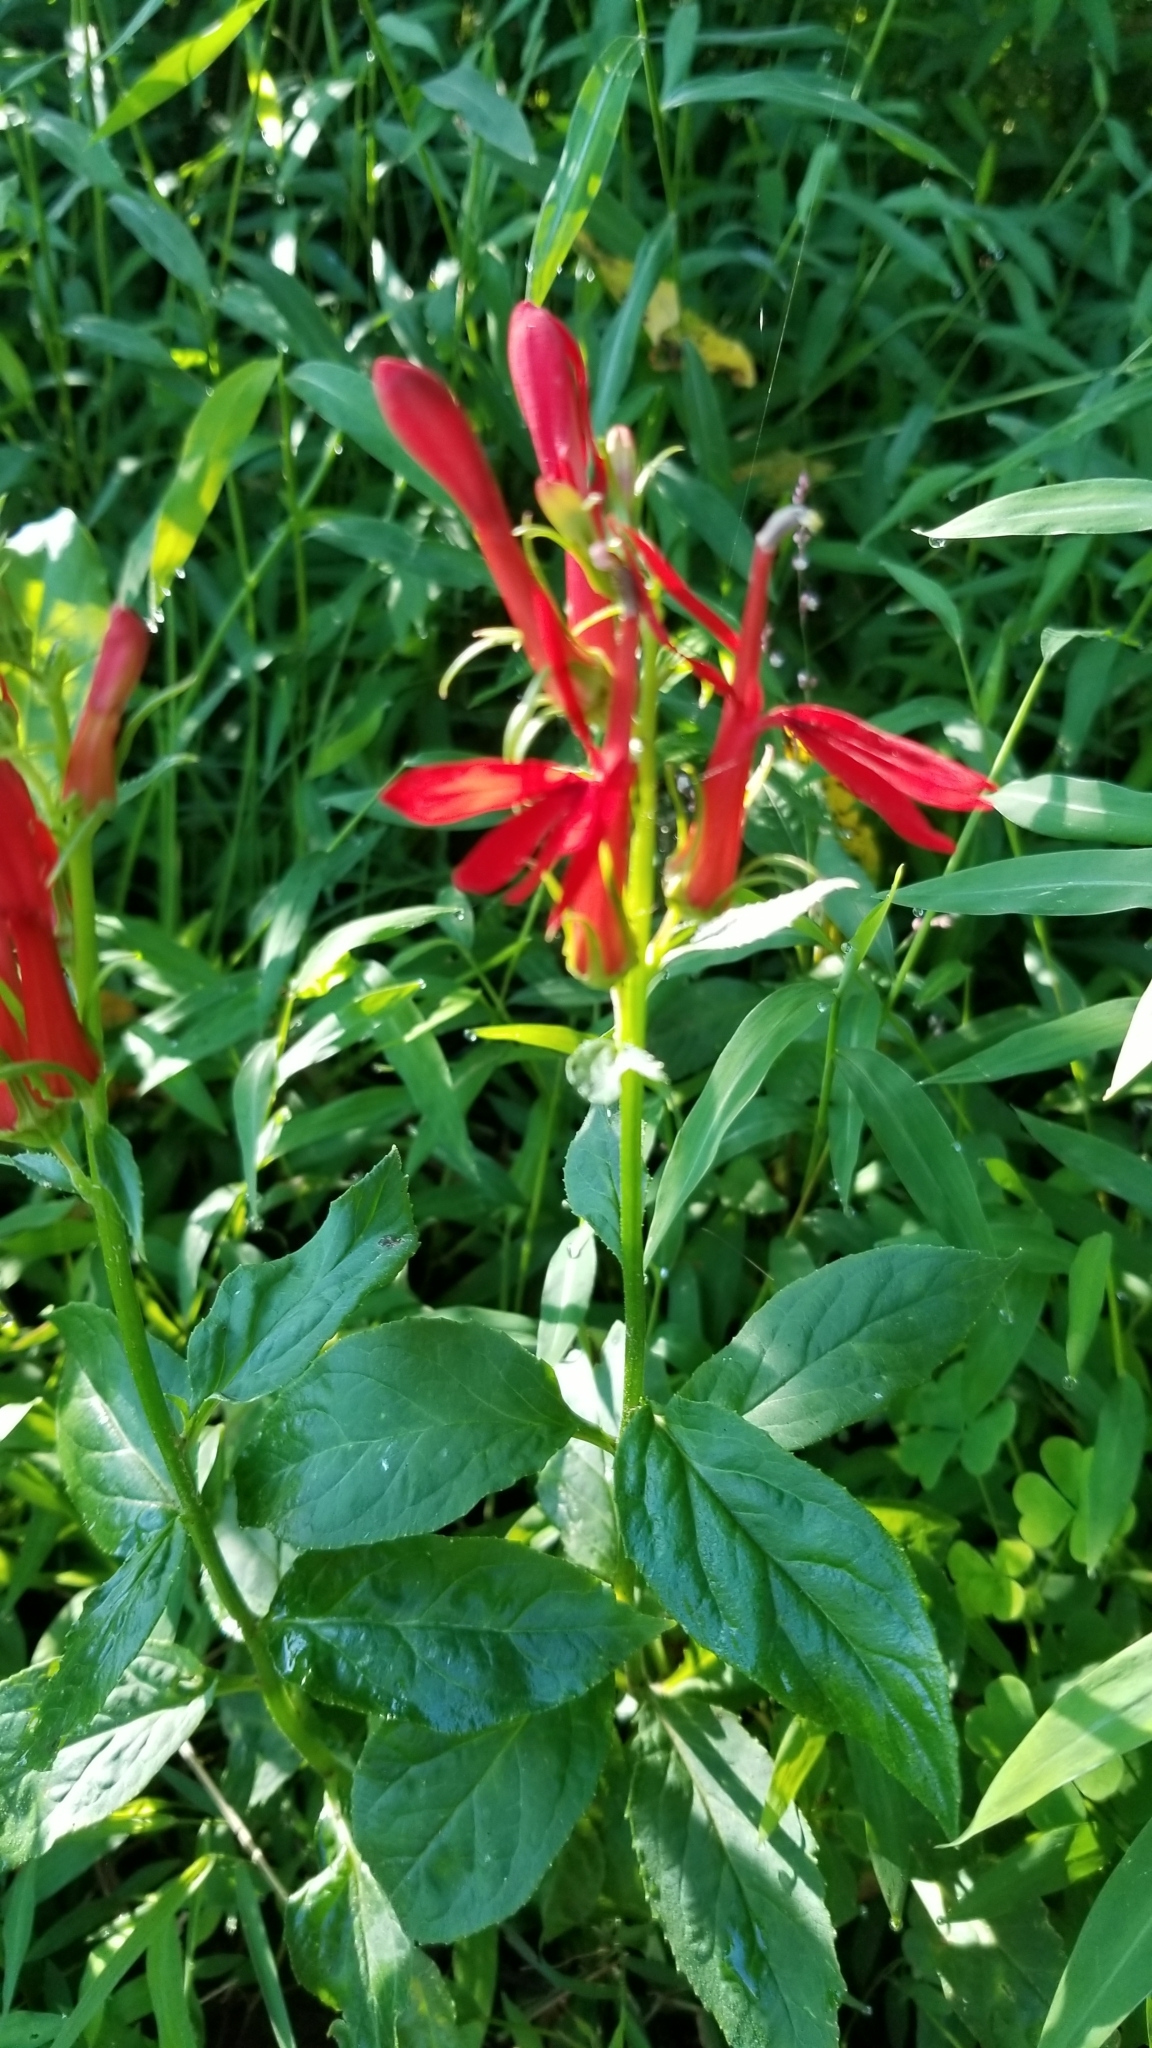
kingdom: Plantae
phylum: Tracheophyta
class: Magnoliopsida
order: Asterales
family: Campanulaceae
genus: Lobelia
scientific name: Lobelia cardinalis
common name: Cardinal flower
